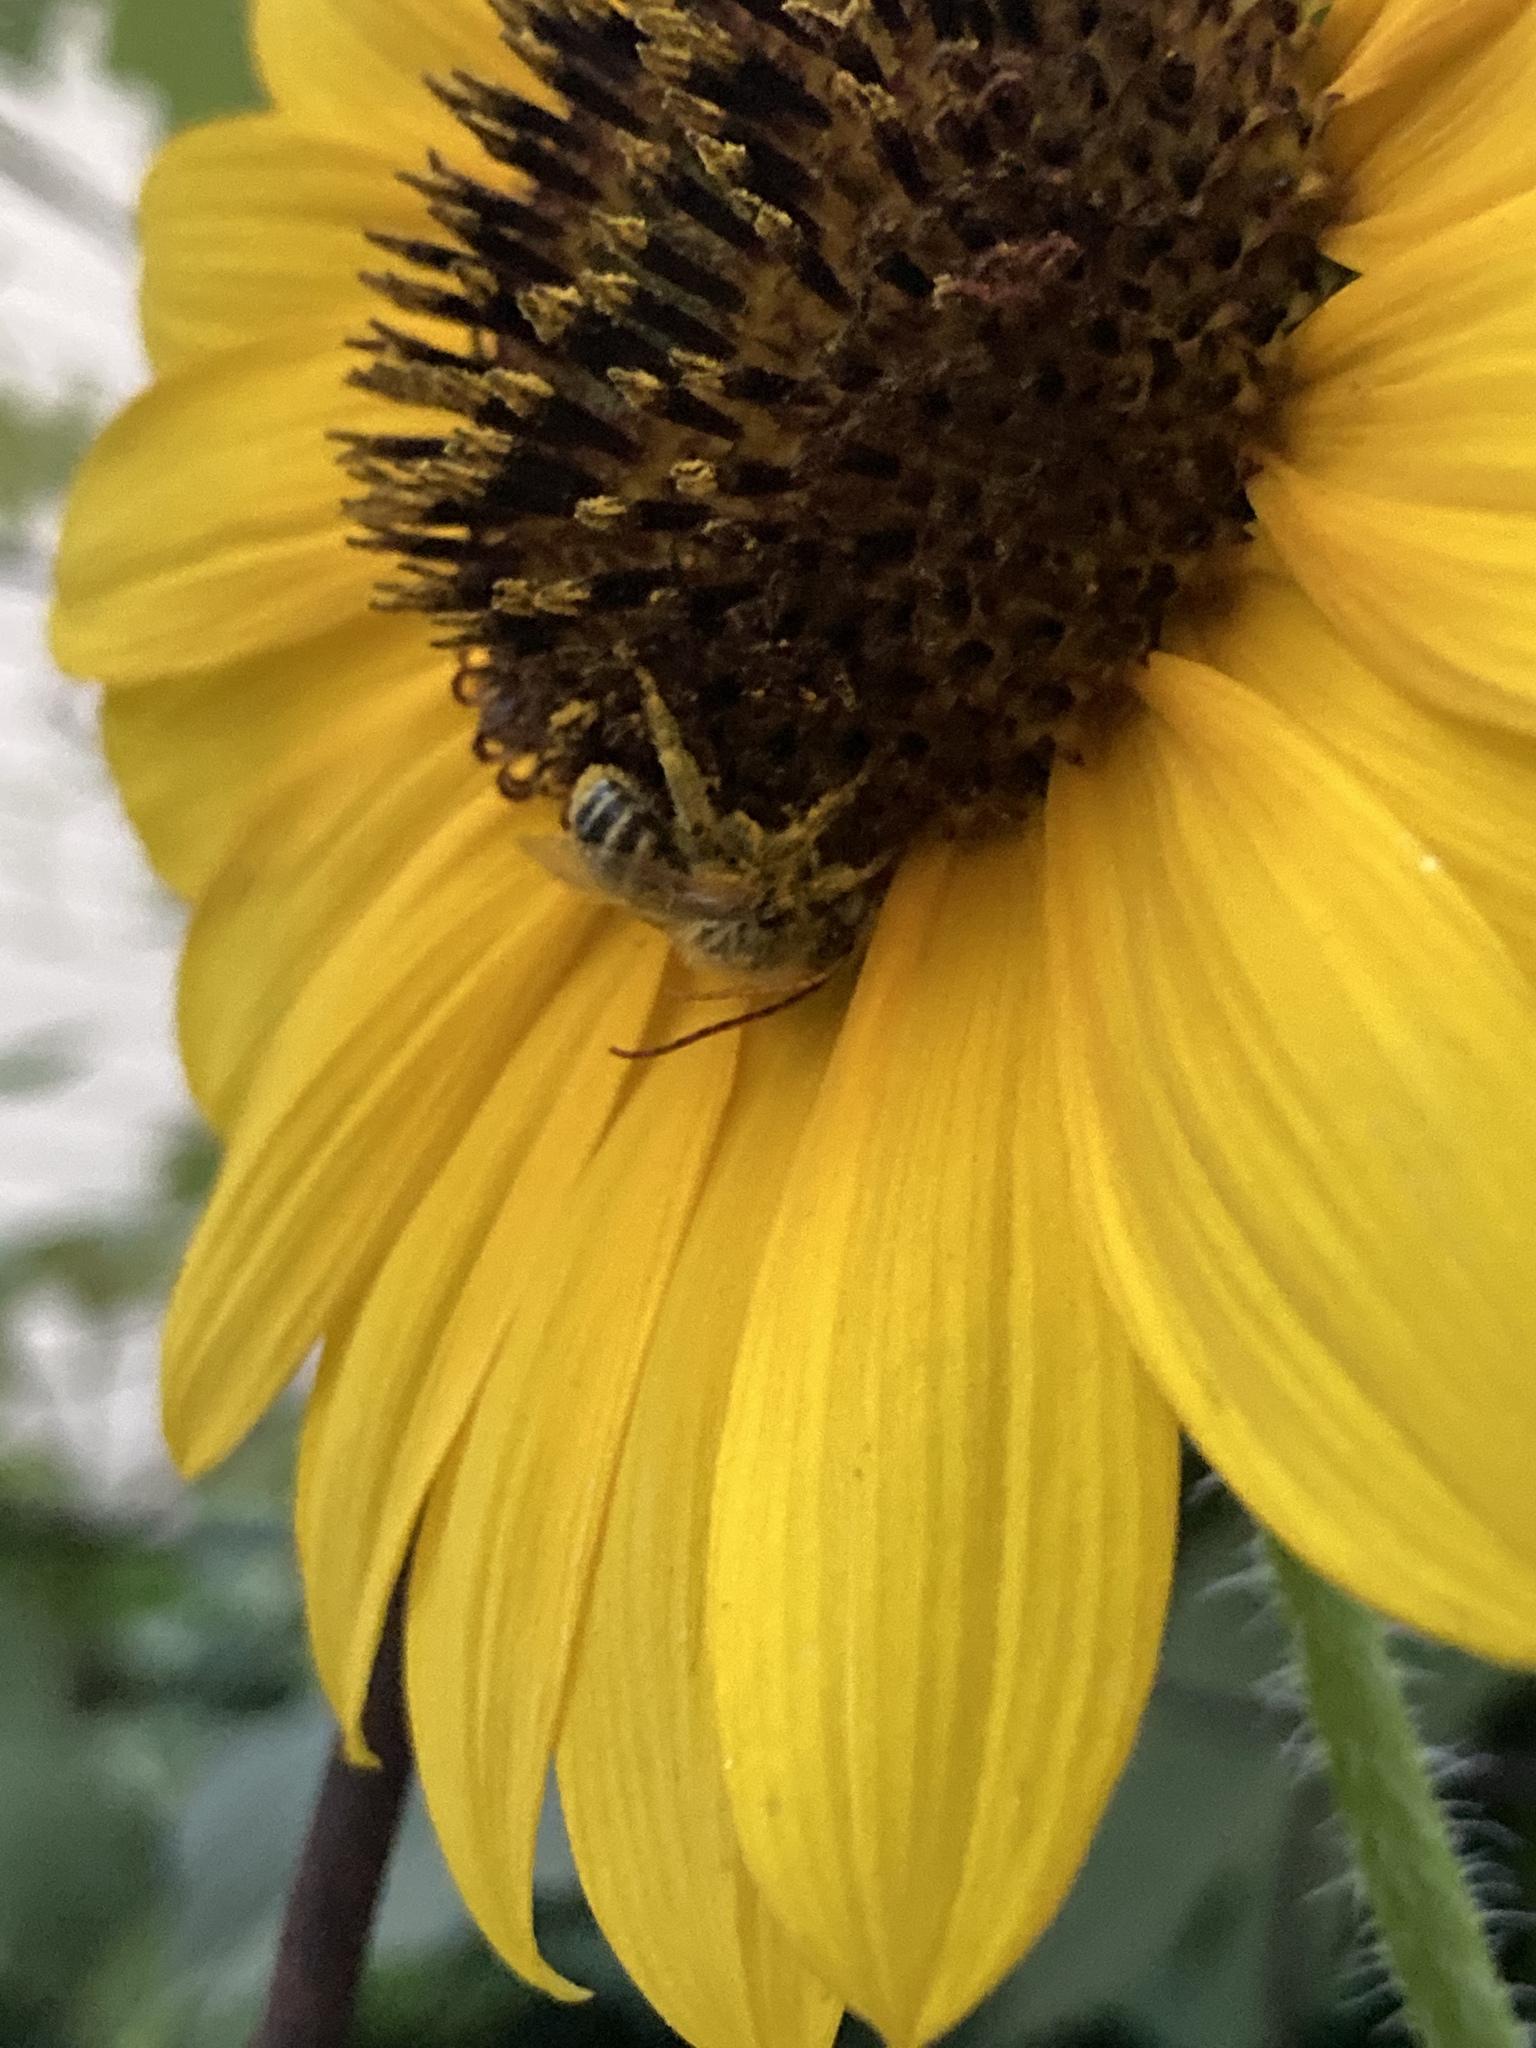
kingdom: Animalia
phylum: Arthropoda
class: Insecta
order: Hymenoptera
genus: Eumelissodes
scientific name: Eumelissodes
